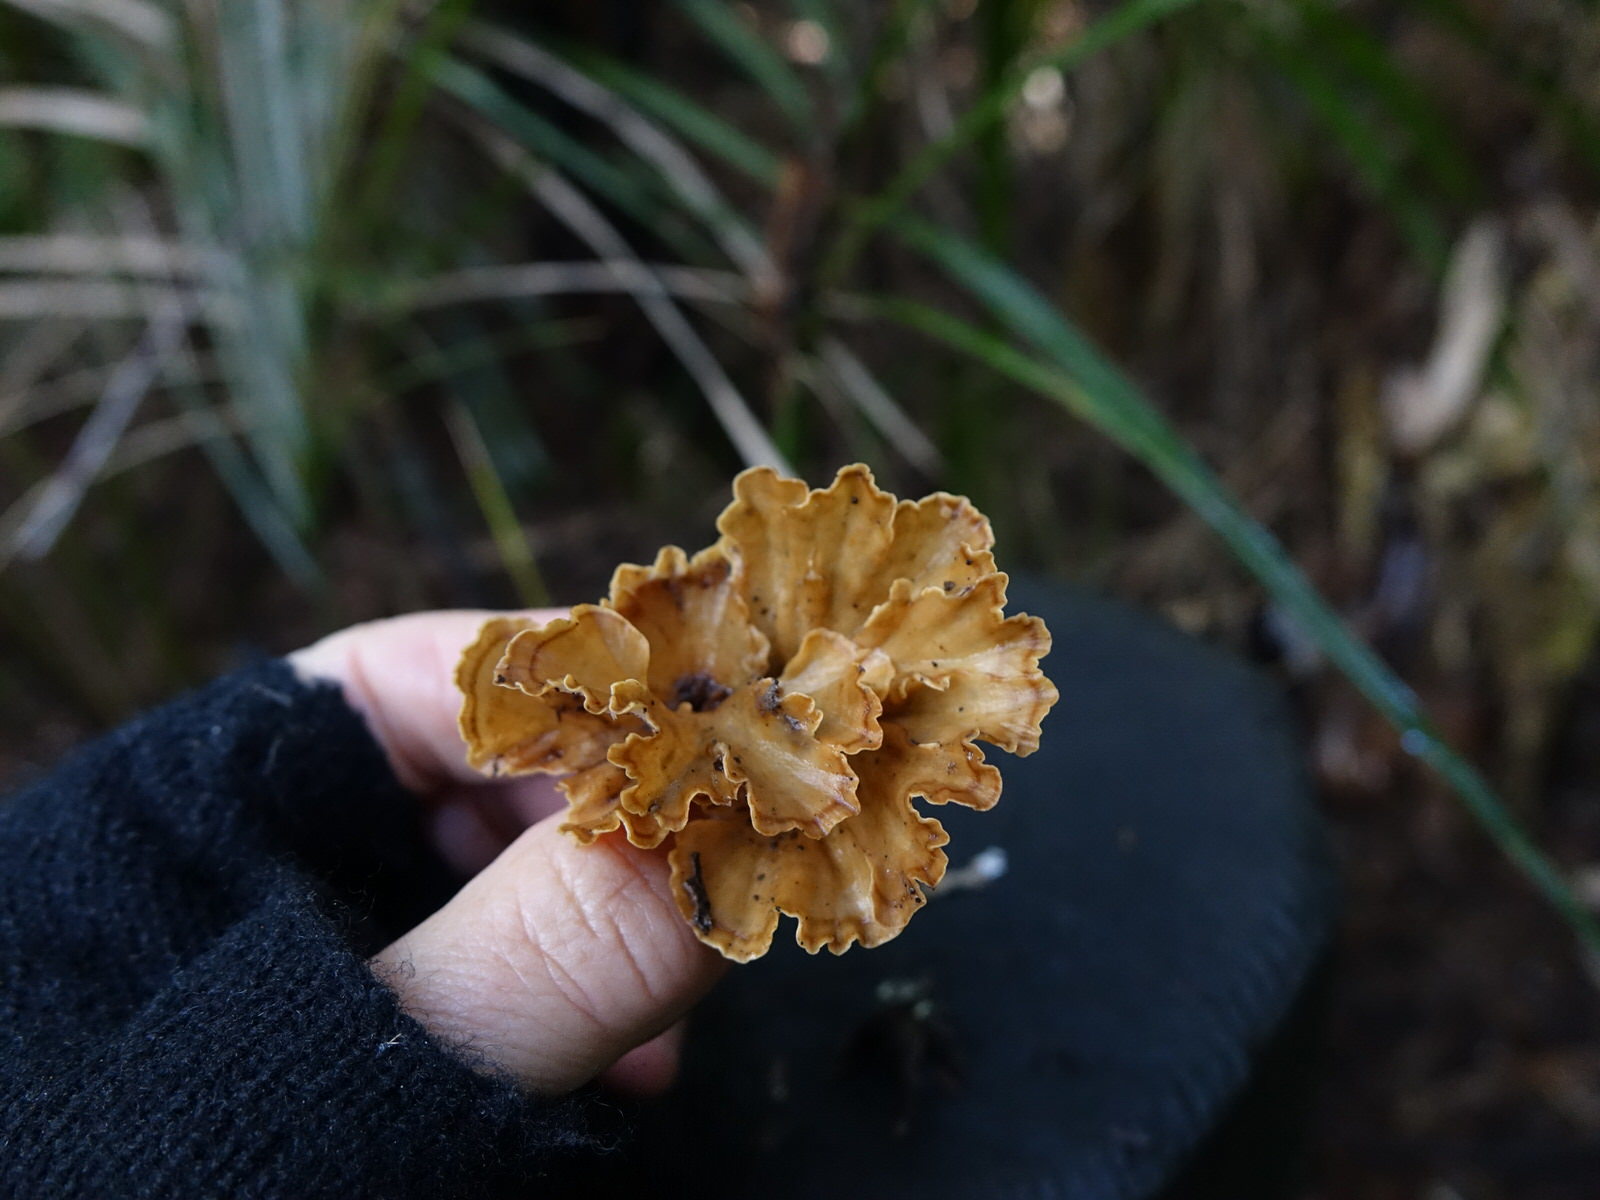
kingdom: Fungi
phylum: Basidiomycota
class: Agaricomycetes
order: Polyporales
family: Podoscyphaceae
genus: Podoscypha
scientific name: Podoscypha petalodes
